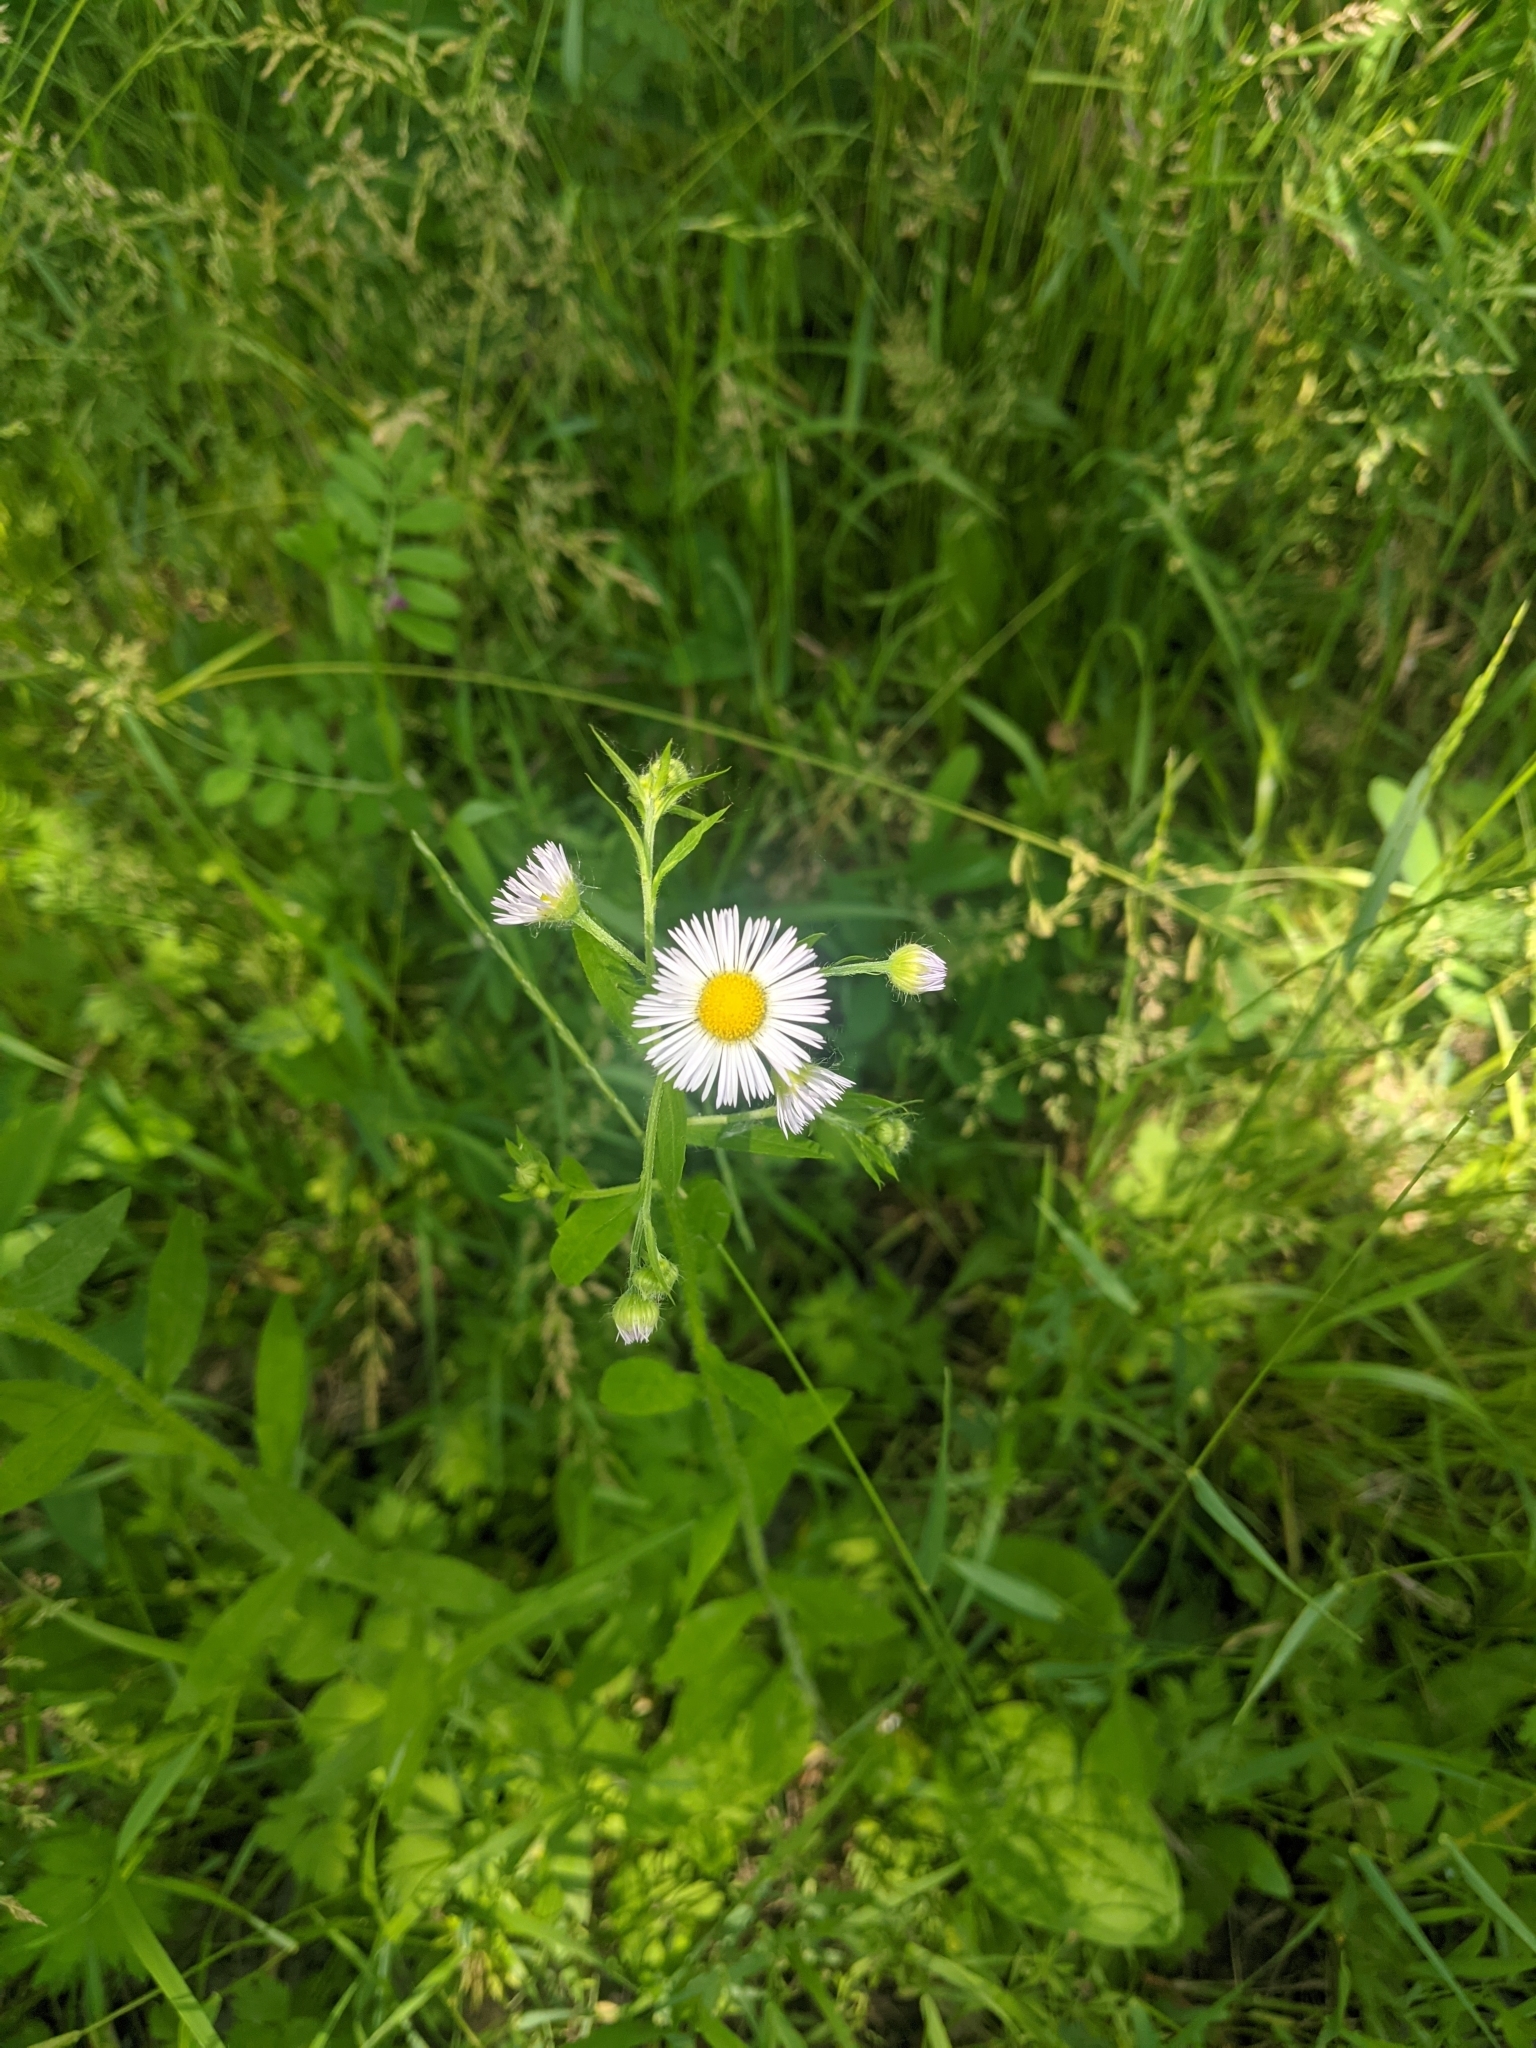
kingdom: Plantae
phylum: Tracheophyta
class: Magnoliopsida
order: Asterales
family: Asteraceae
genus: Erigeron
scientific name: Erigeron annuus
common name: Tall fleabane
